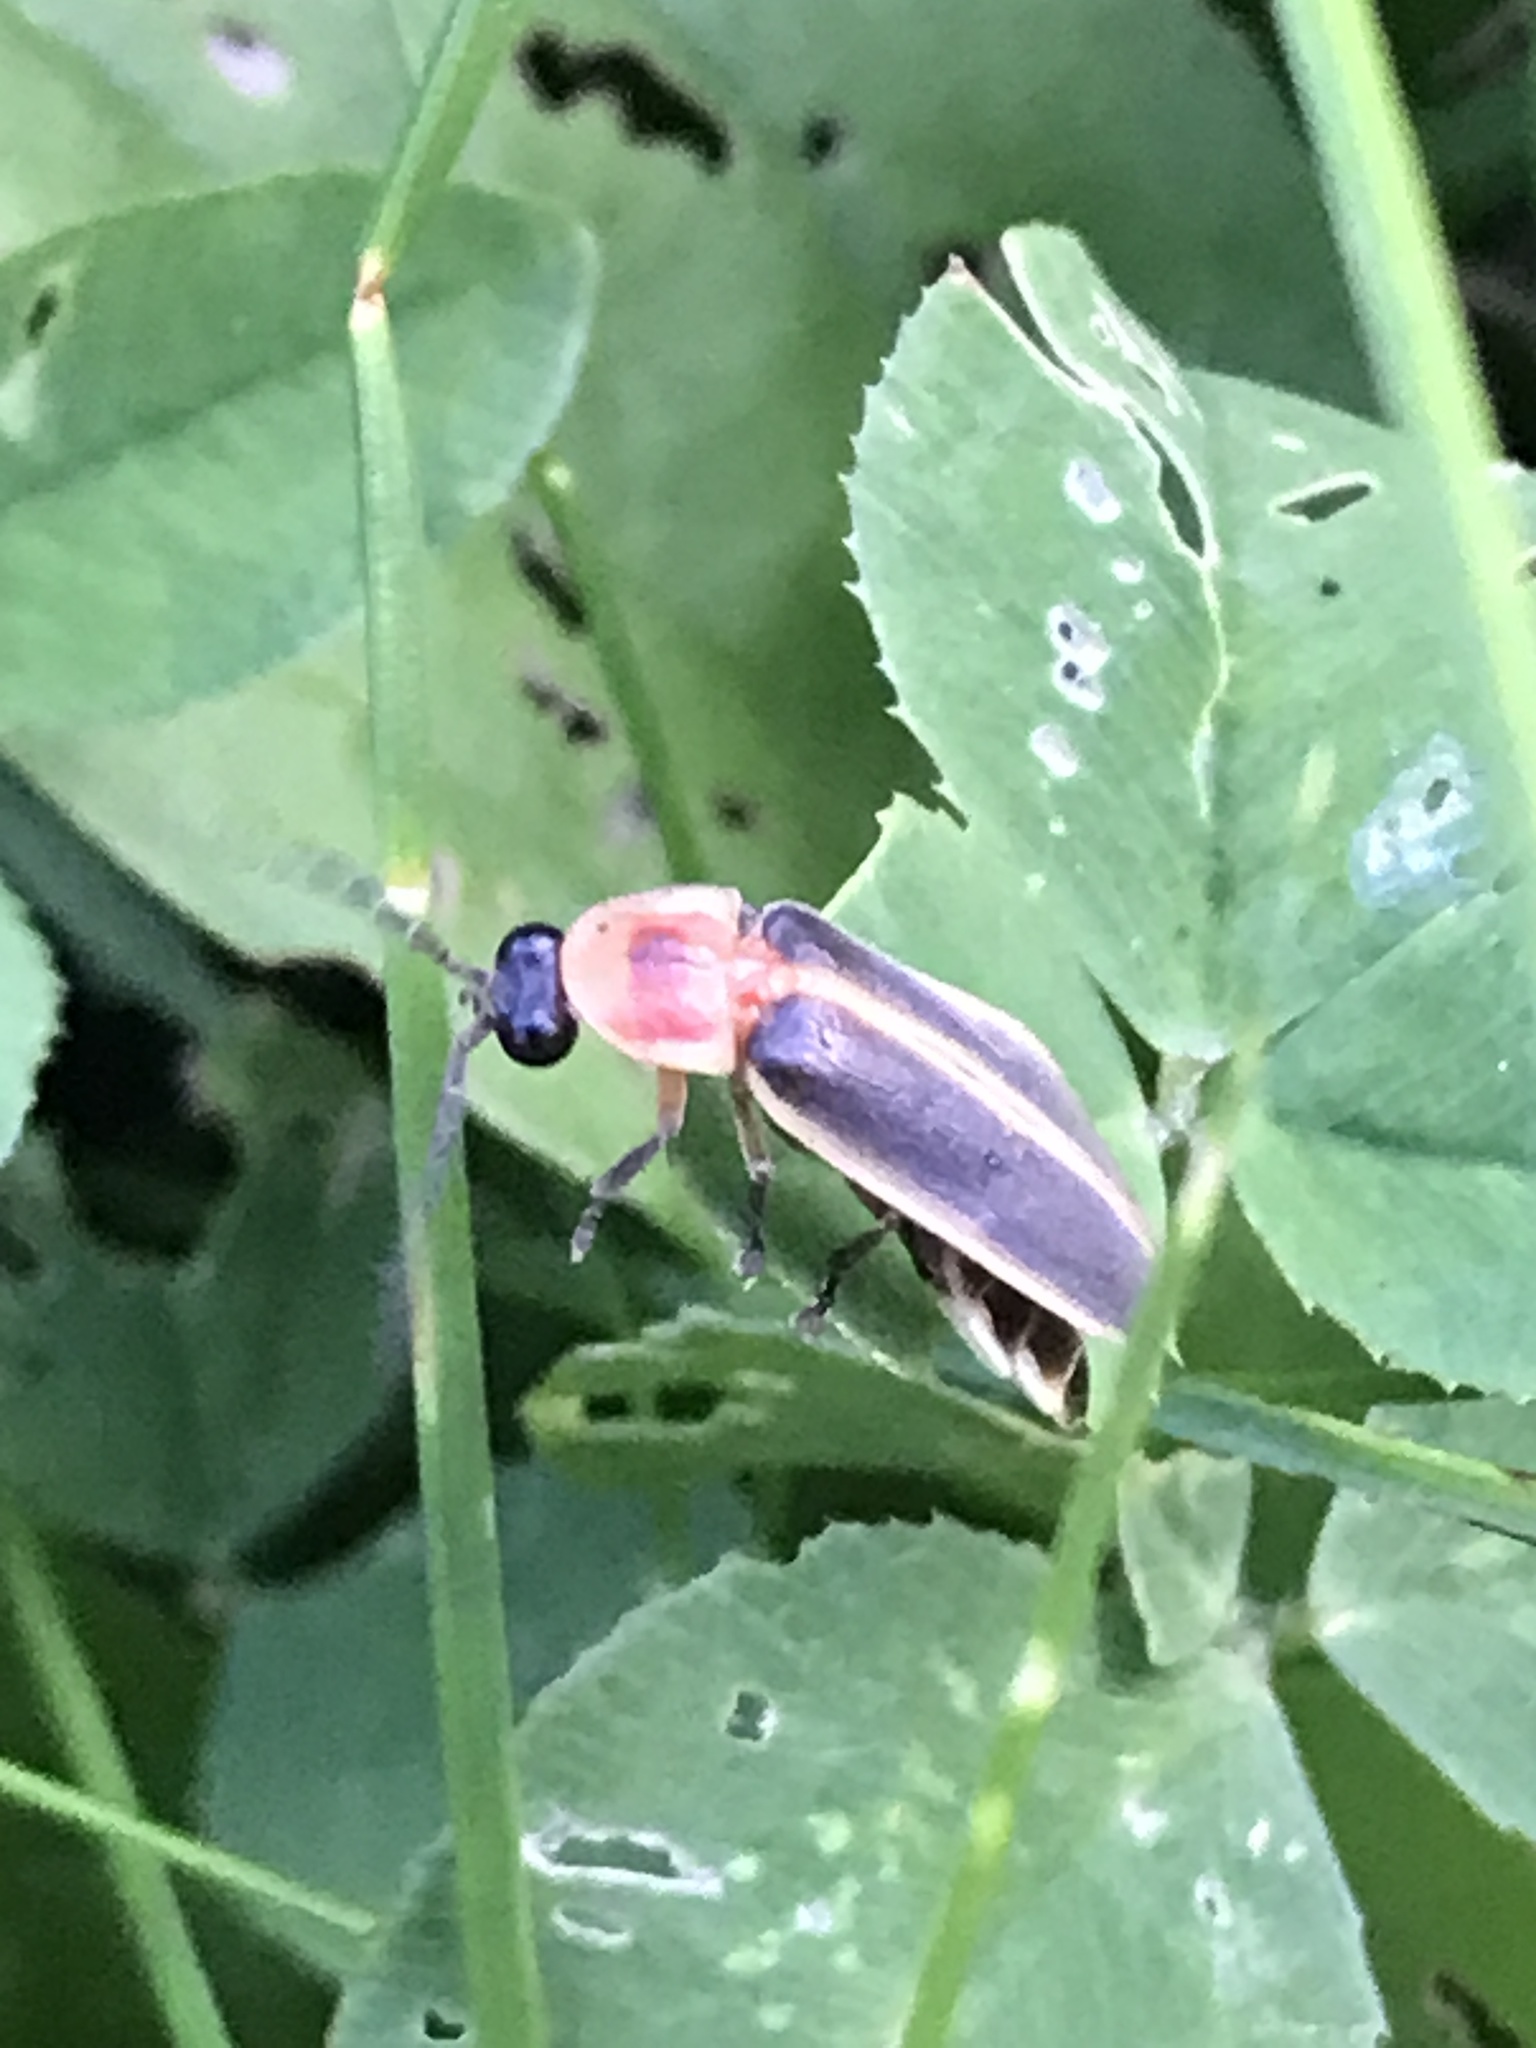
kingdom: Animalia
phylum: Arthropoda
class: Insecta
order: Coleoptera
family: Lampyridae
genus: Photinus
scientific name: Photinus pyralis
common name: Big dipper firefly
